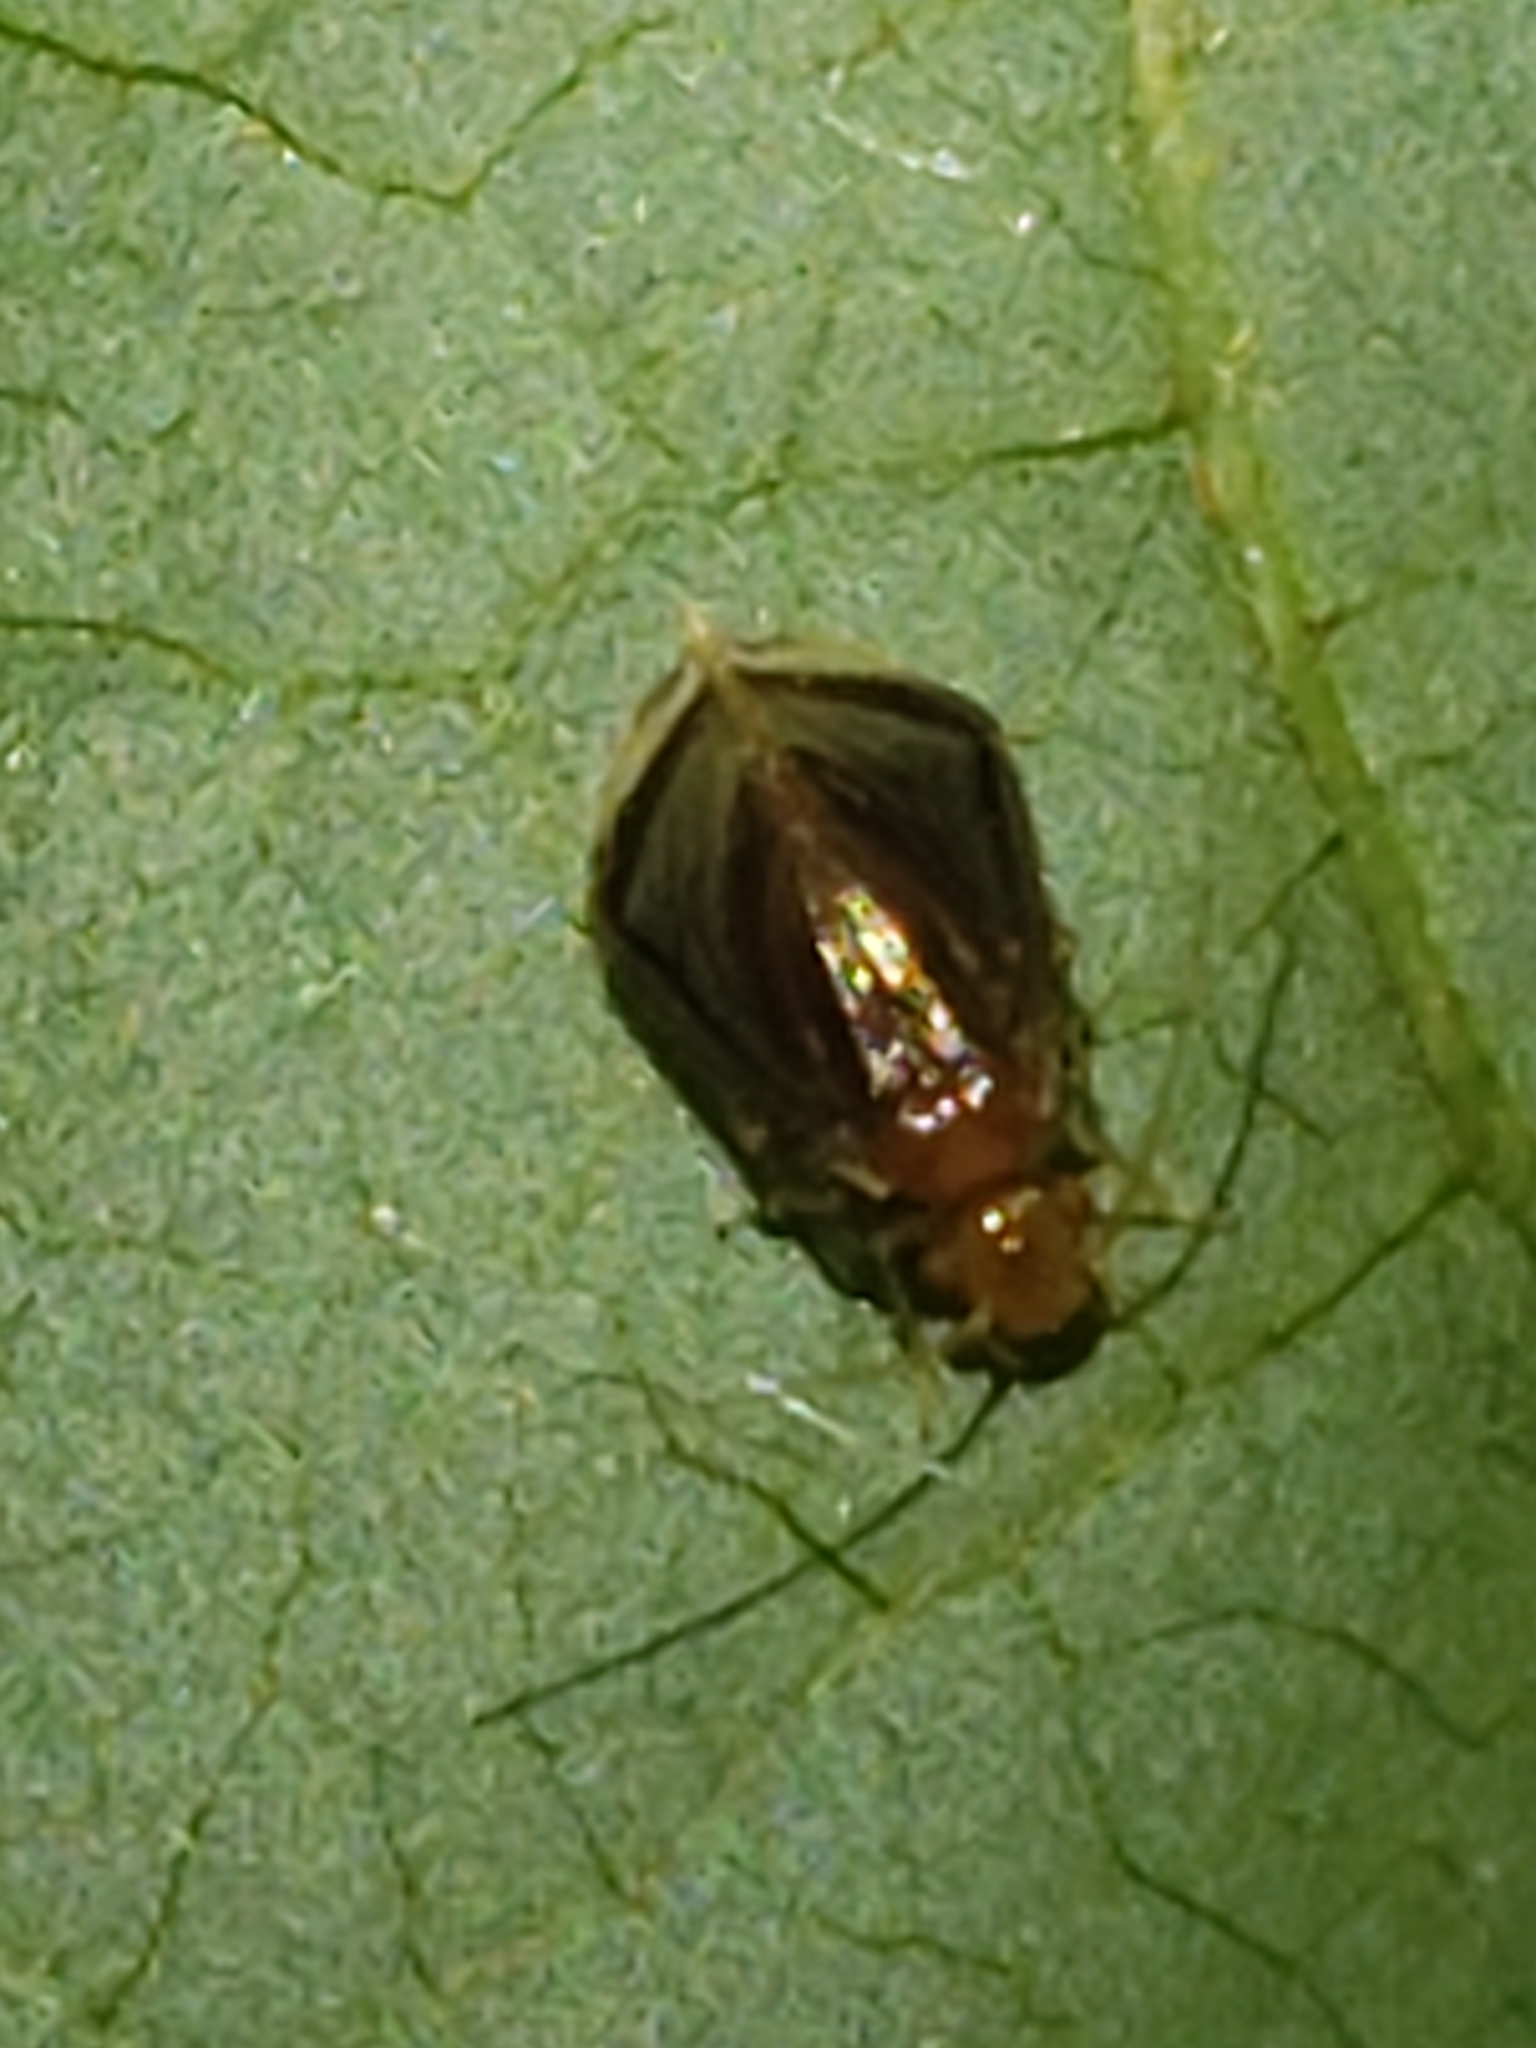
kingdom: Animalia
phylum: Arthropoda
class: Insecta
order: Psocodea
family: Amphipsocidae
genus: Polypsocus
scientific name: Polypsocus corruptus
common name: Corrupt barklouse
